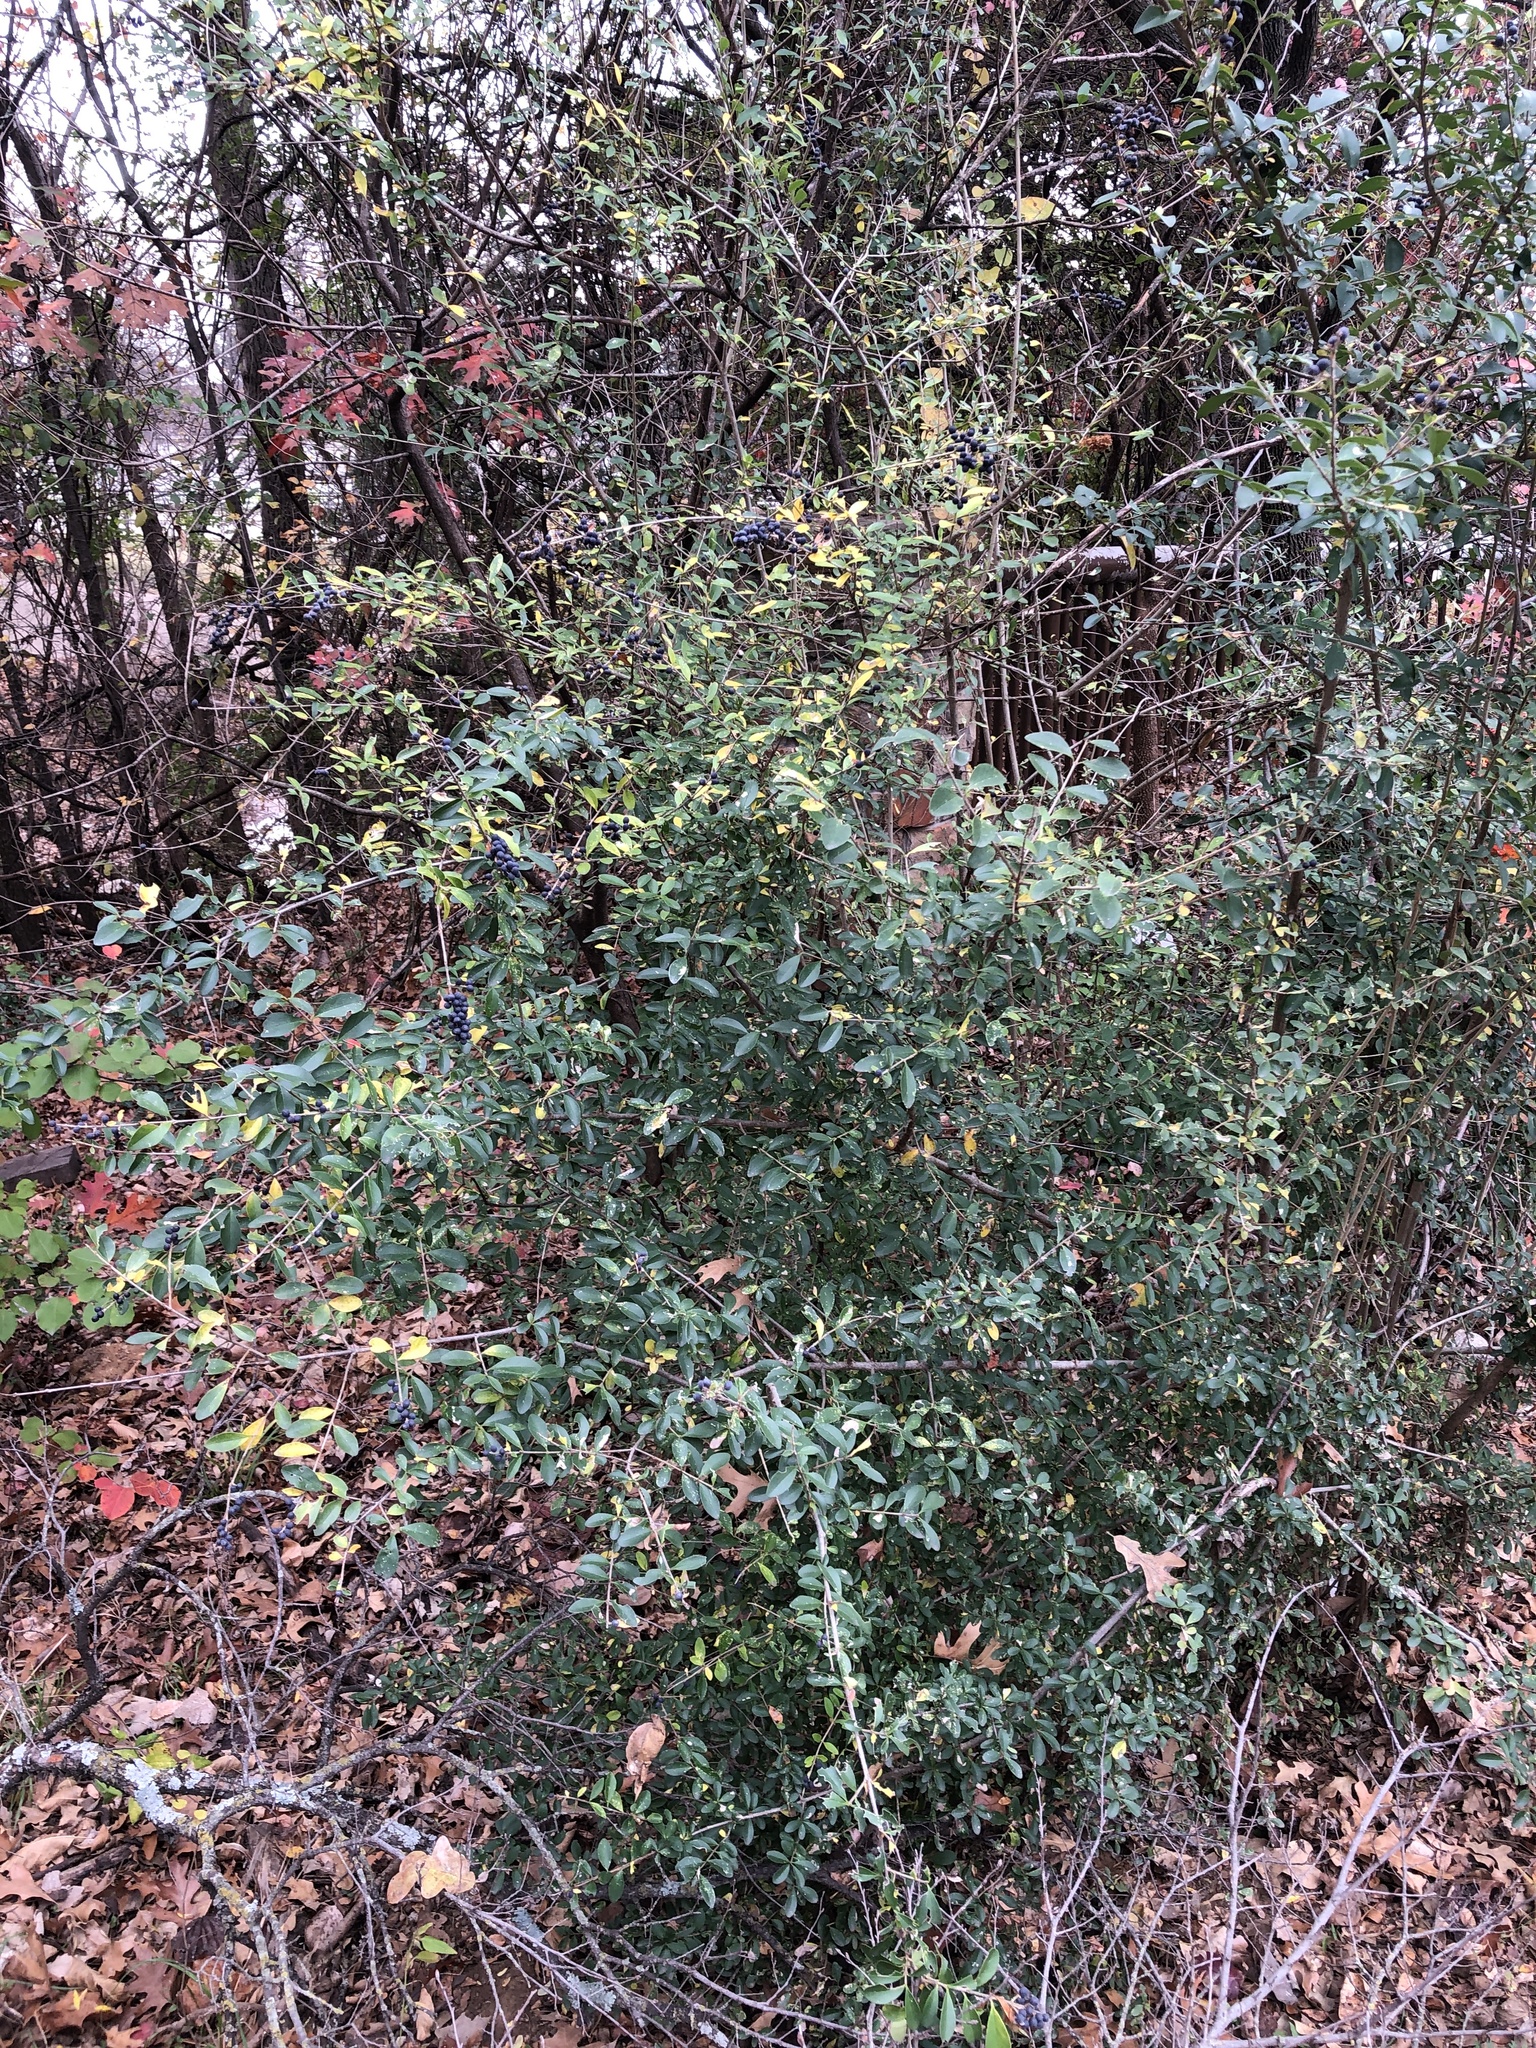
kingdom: Plantae
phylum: Tracheophyta
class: Magnoliopsida
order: Lamiales
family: Oleaceae
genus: Ligustrum
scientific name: Ligustrum quihoui
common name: Waxyleaf privet
